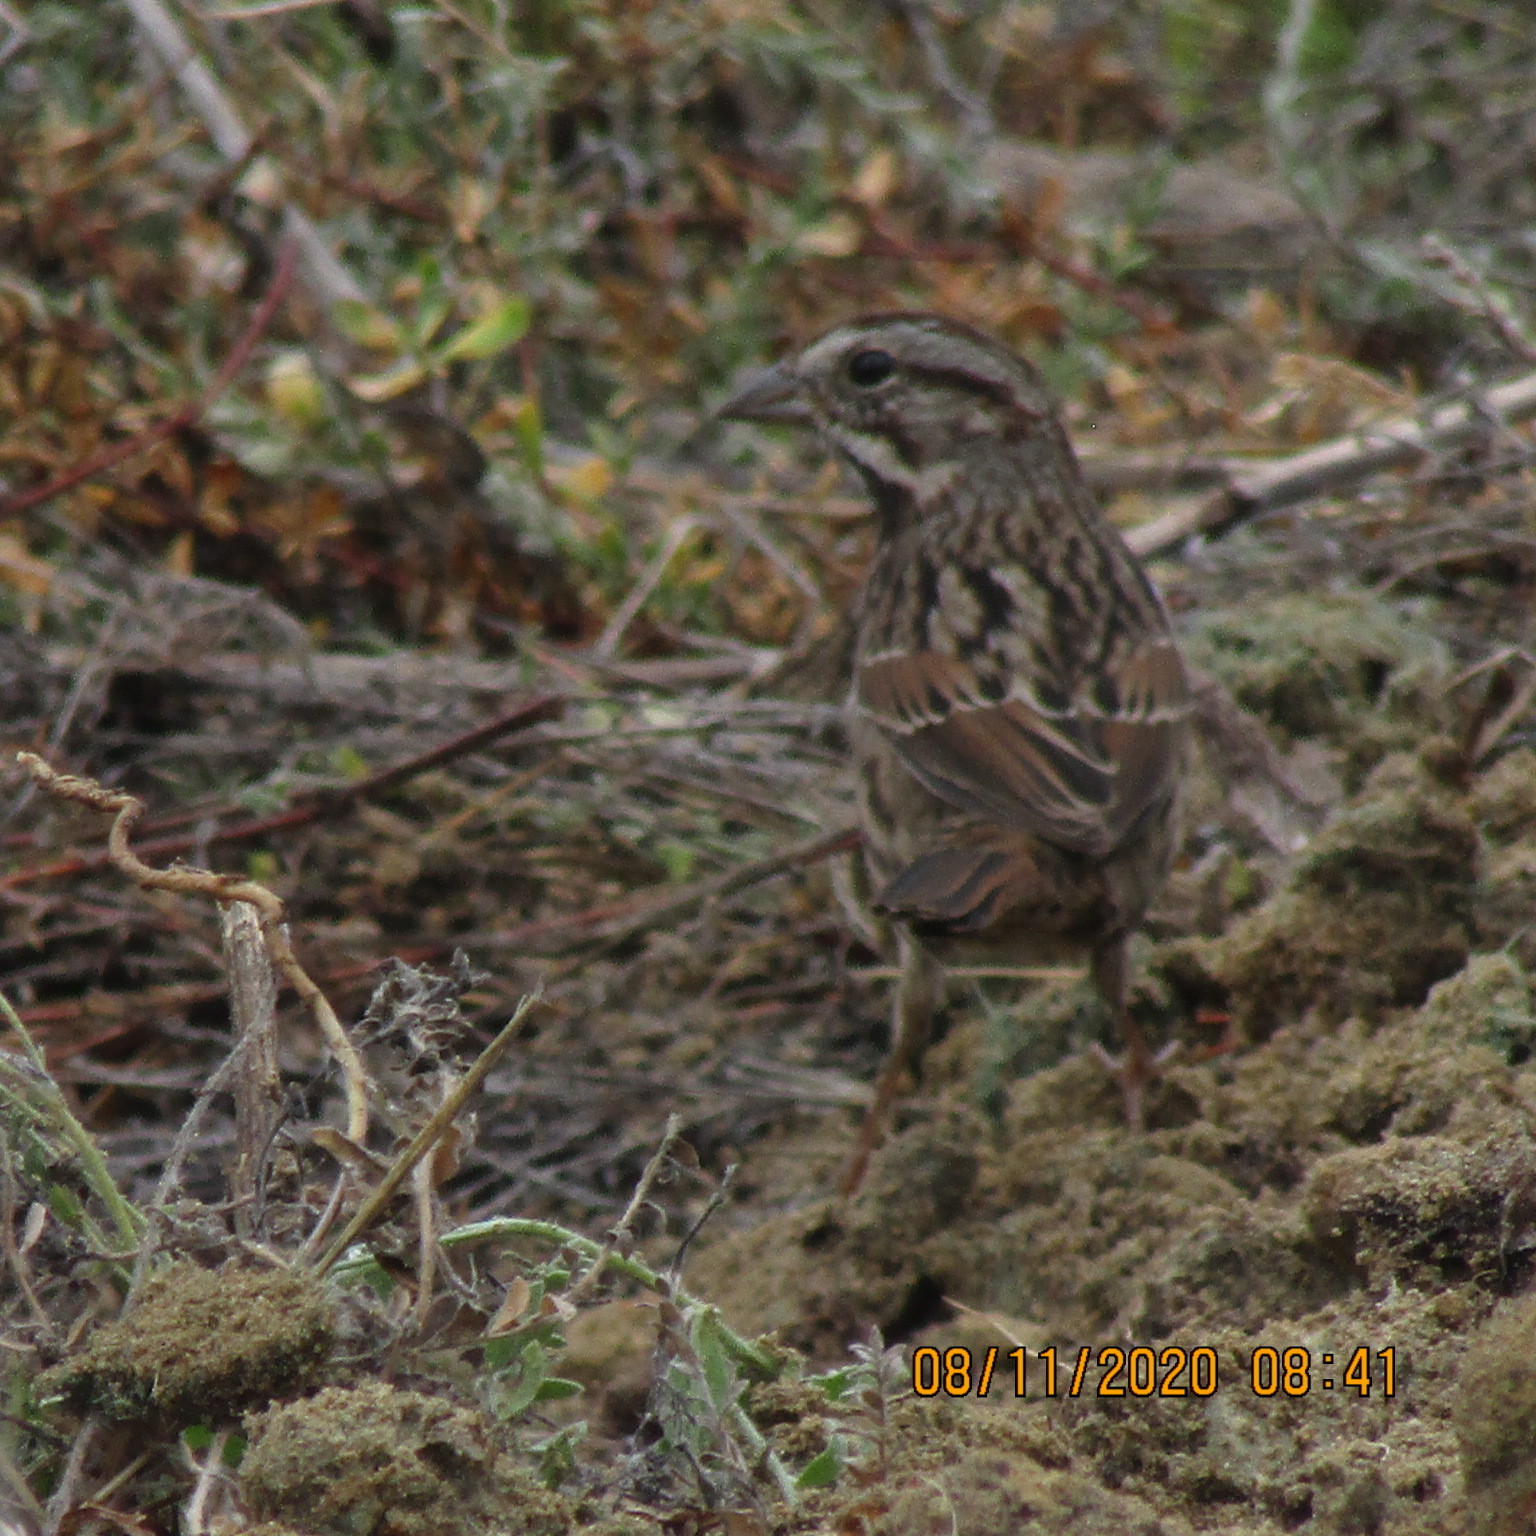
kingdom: Animalia
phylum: Chordata
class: Aves
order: Passeriformes
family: Passerellidae
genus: Melospiza
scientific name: Melospiza melodia
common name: Song sparrow
